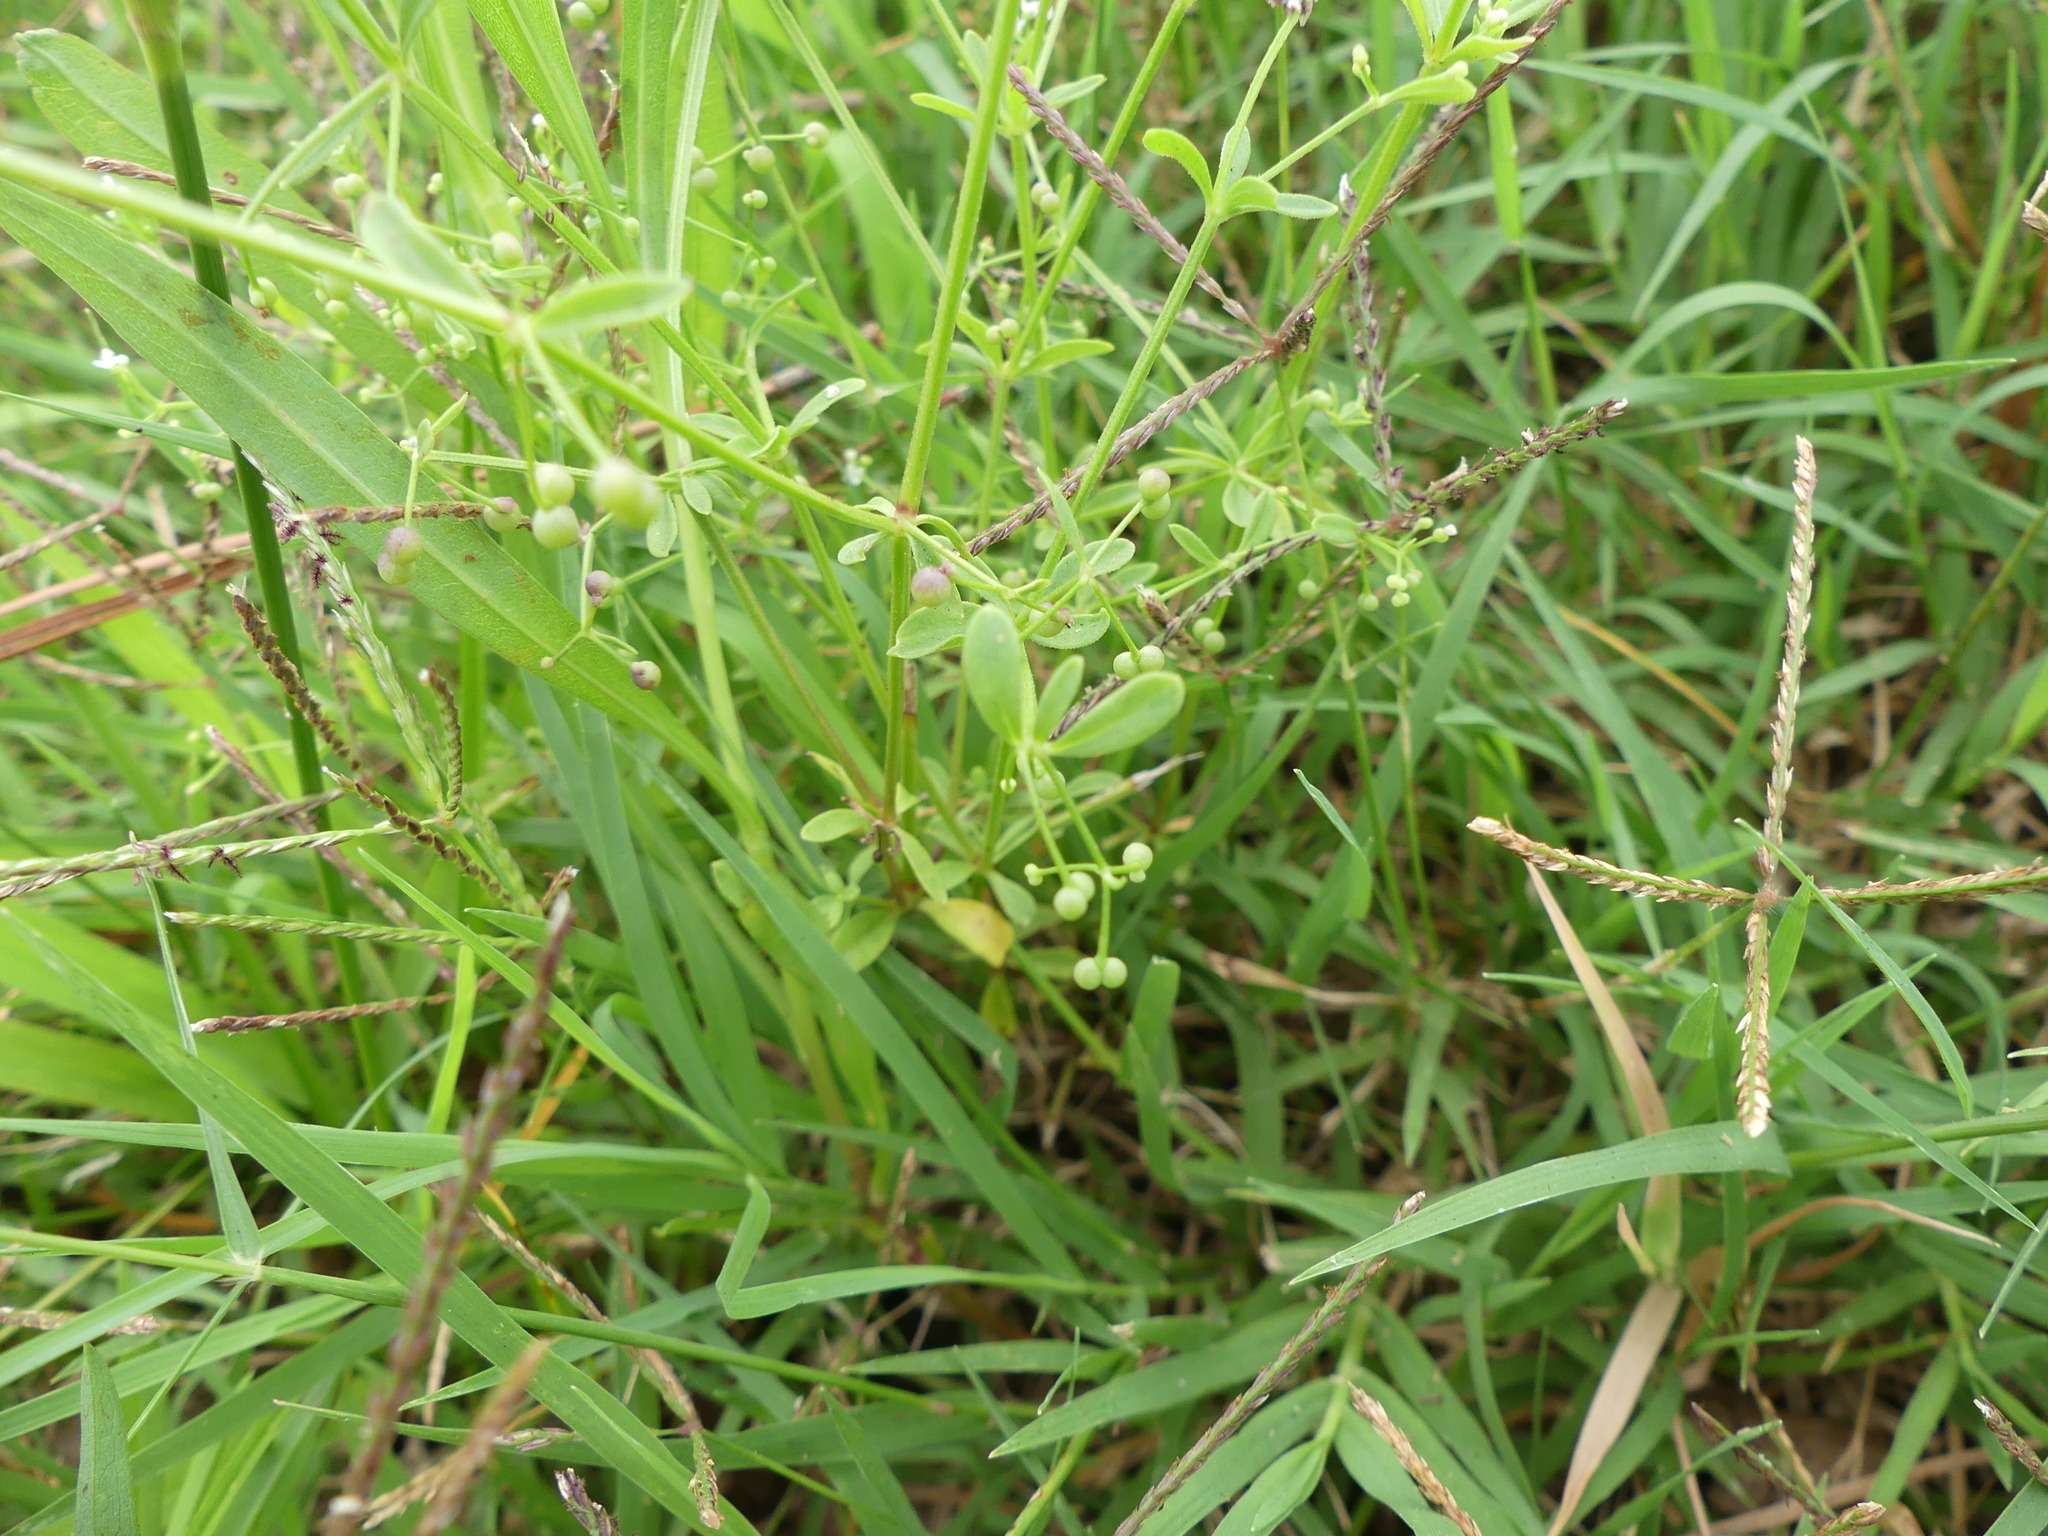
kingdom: Plantae
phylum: Tracheophyta
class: Magnoliopsida
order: Gentianales
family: Rubiaceae
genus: Galium
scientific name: Galium
